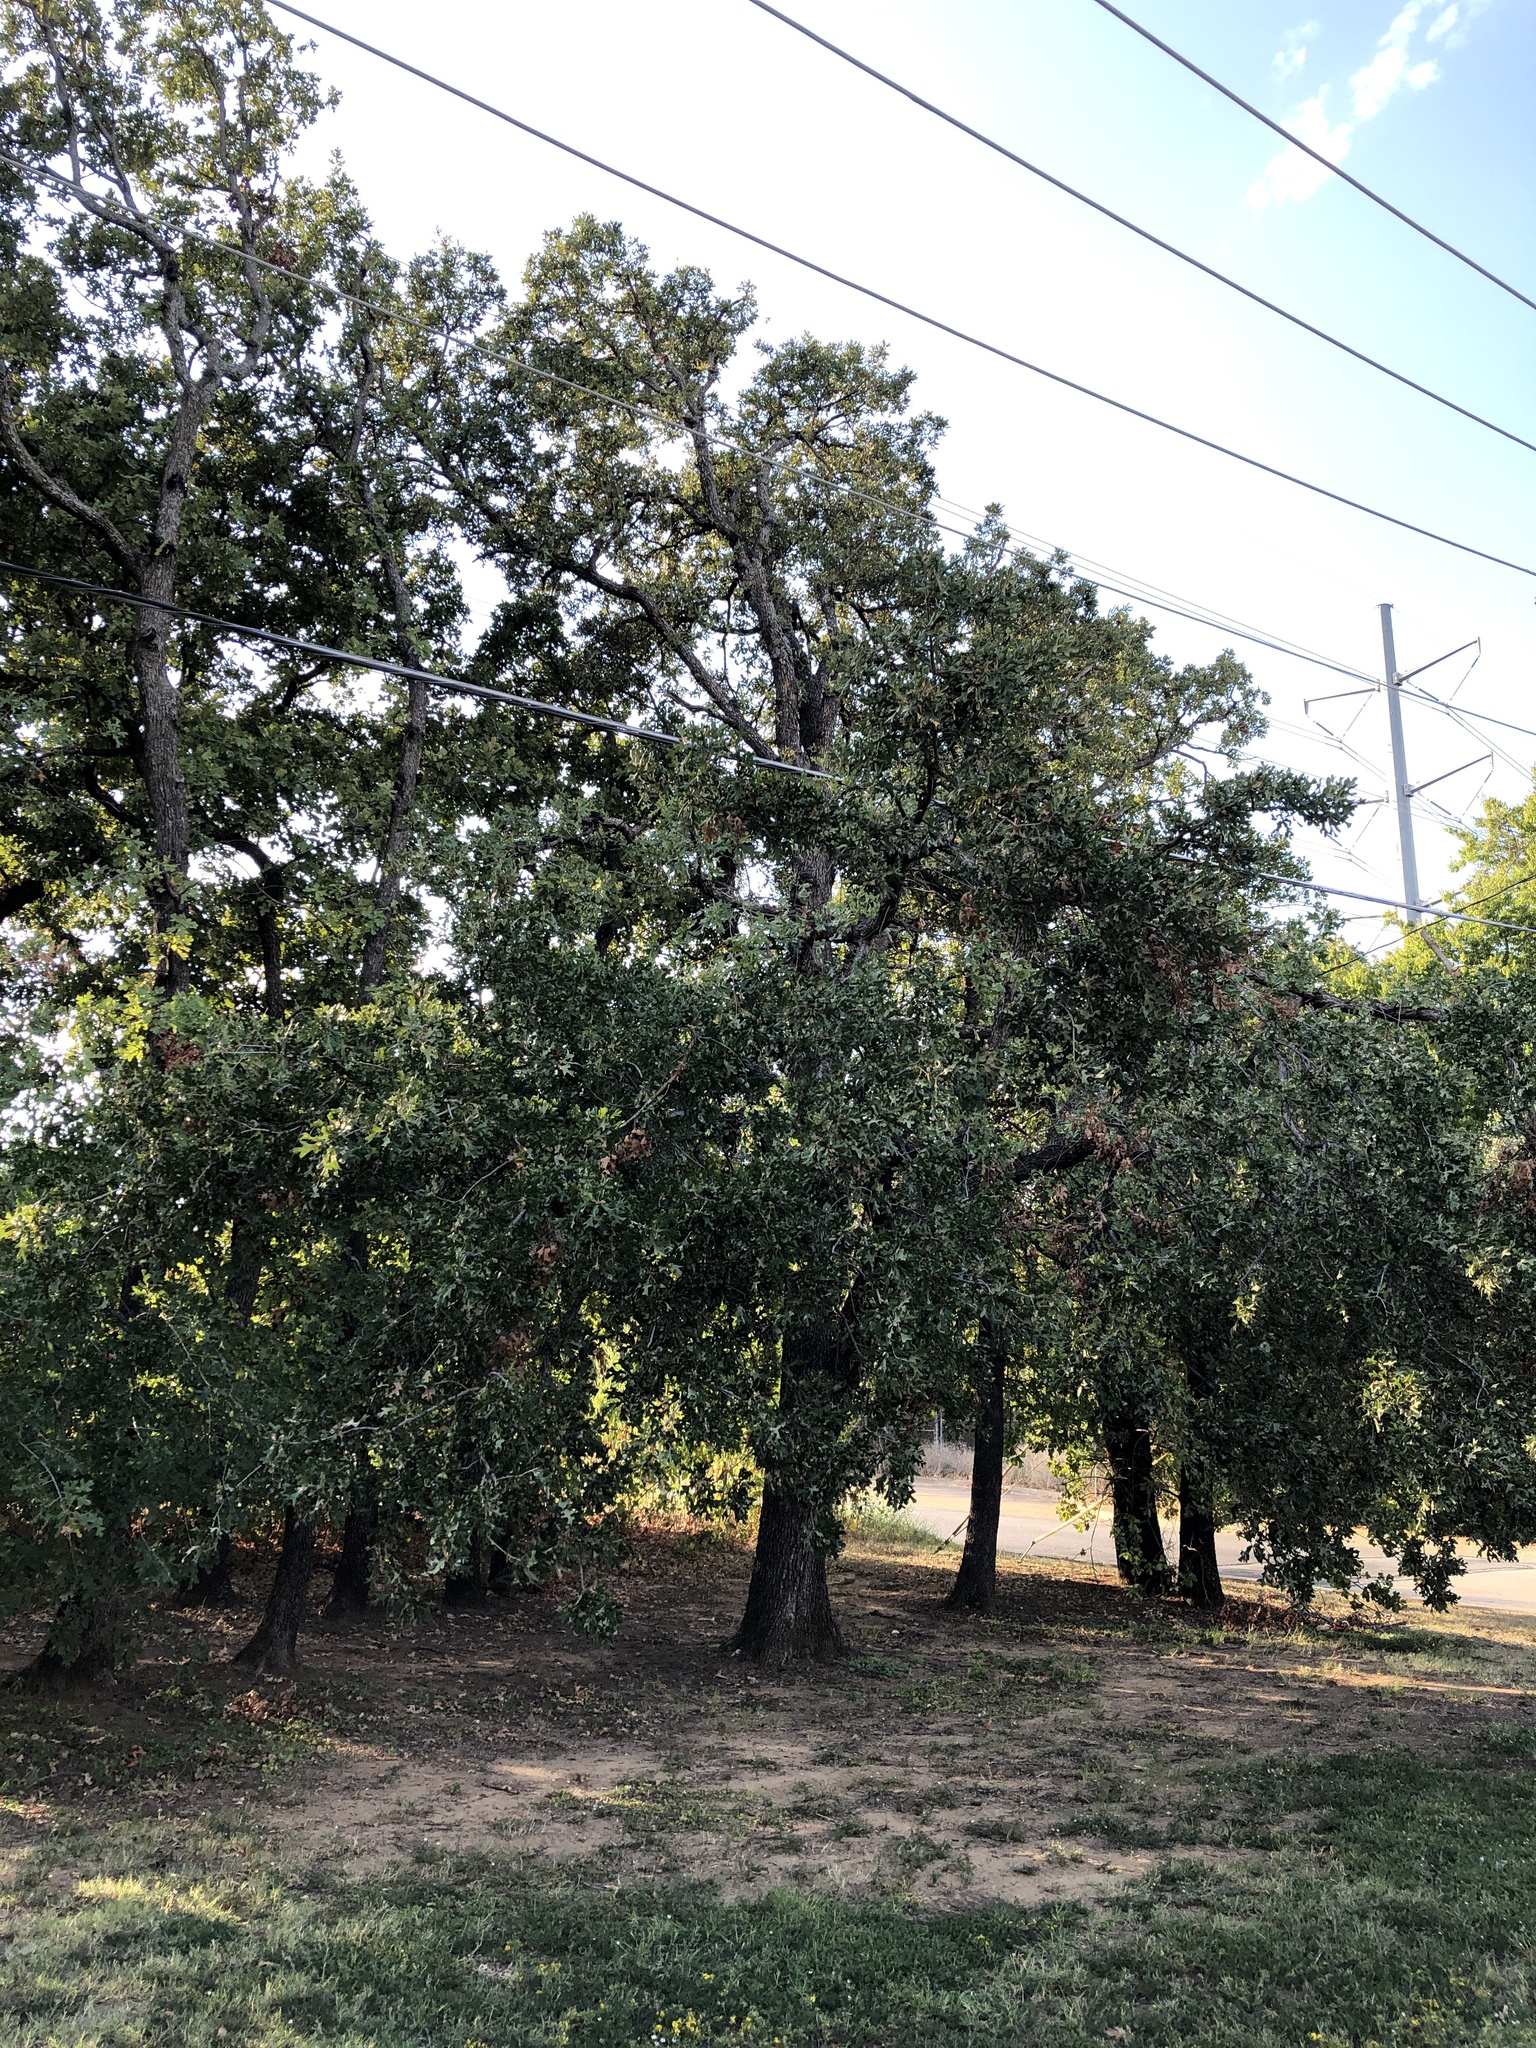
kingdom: Plantae
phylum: Tracheophyta
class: Magnoliopsida
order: Fagales
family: Fagaceae
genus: Quercus
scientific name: Quercus stellata
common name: Post oak
